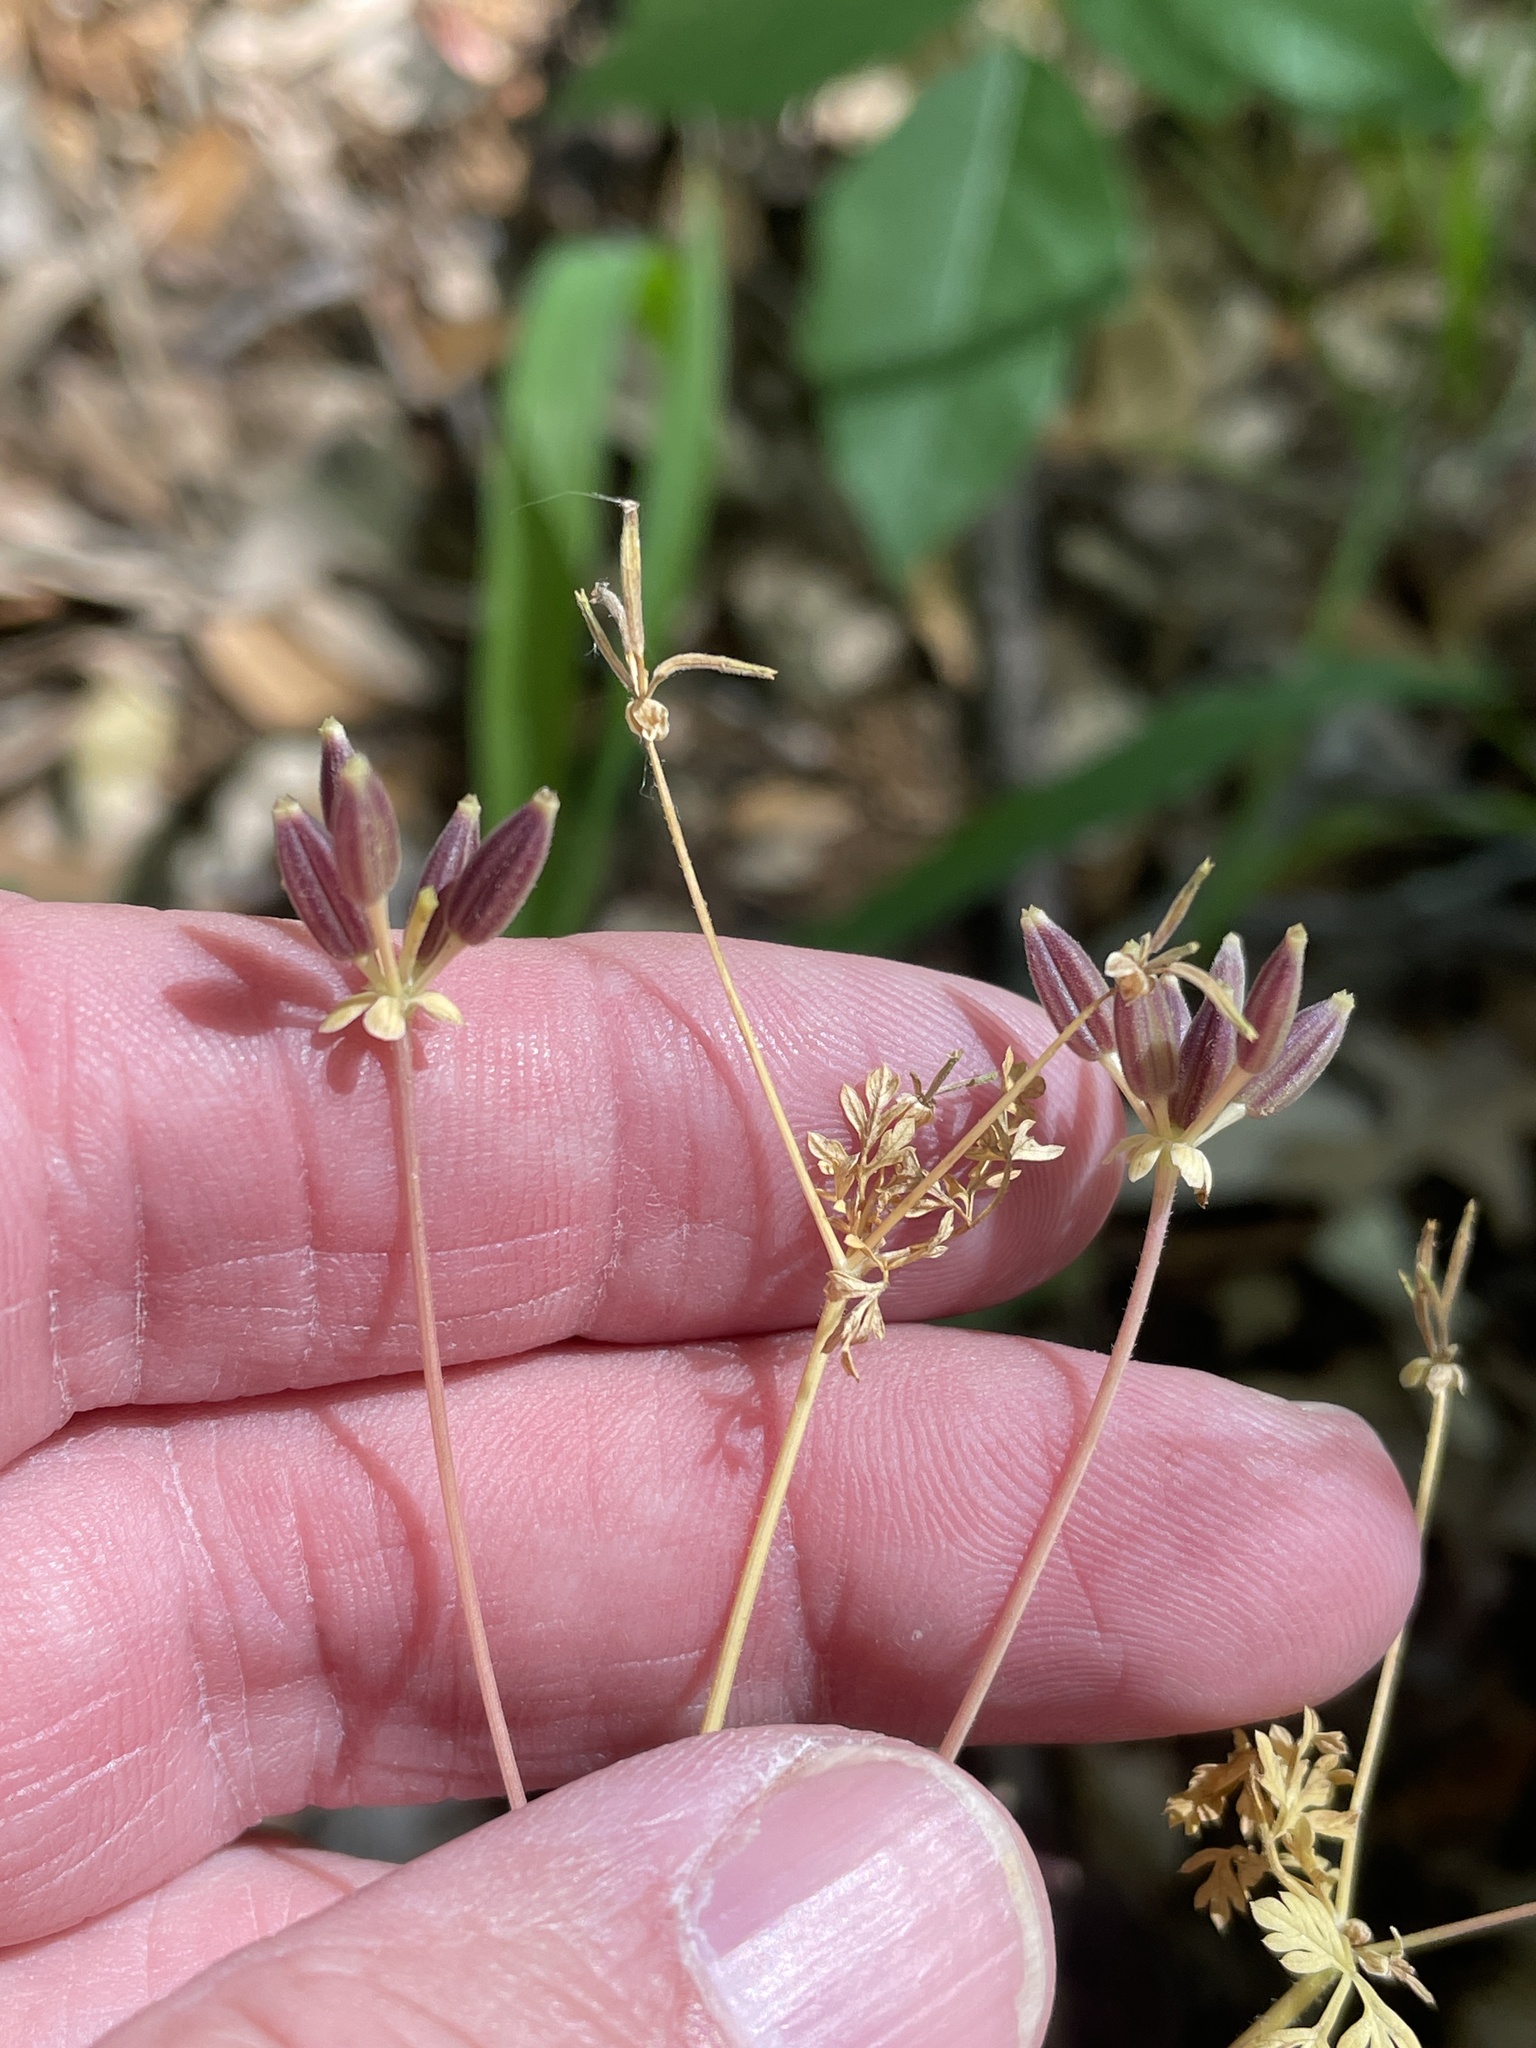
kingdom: Plantae
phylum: Tracheophyta
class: Magnoliopsida
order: Apiales
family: Apiaceae
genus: Chaerophyllum
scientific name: Chaerophyllum tainturieri
